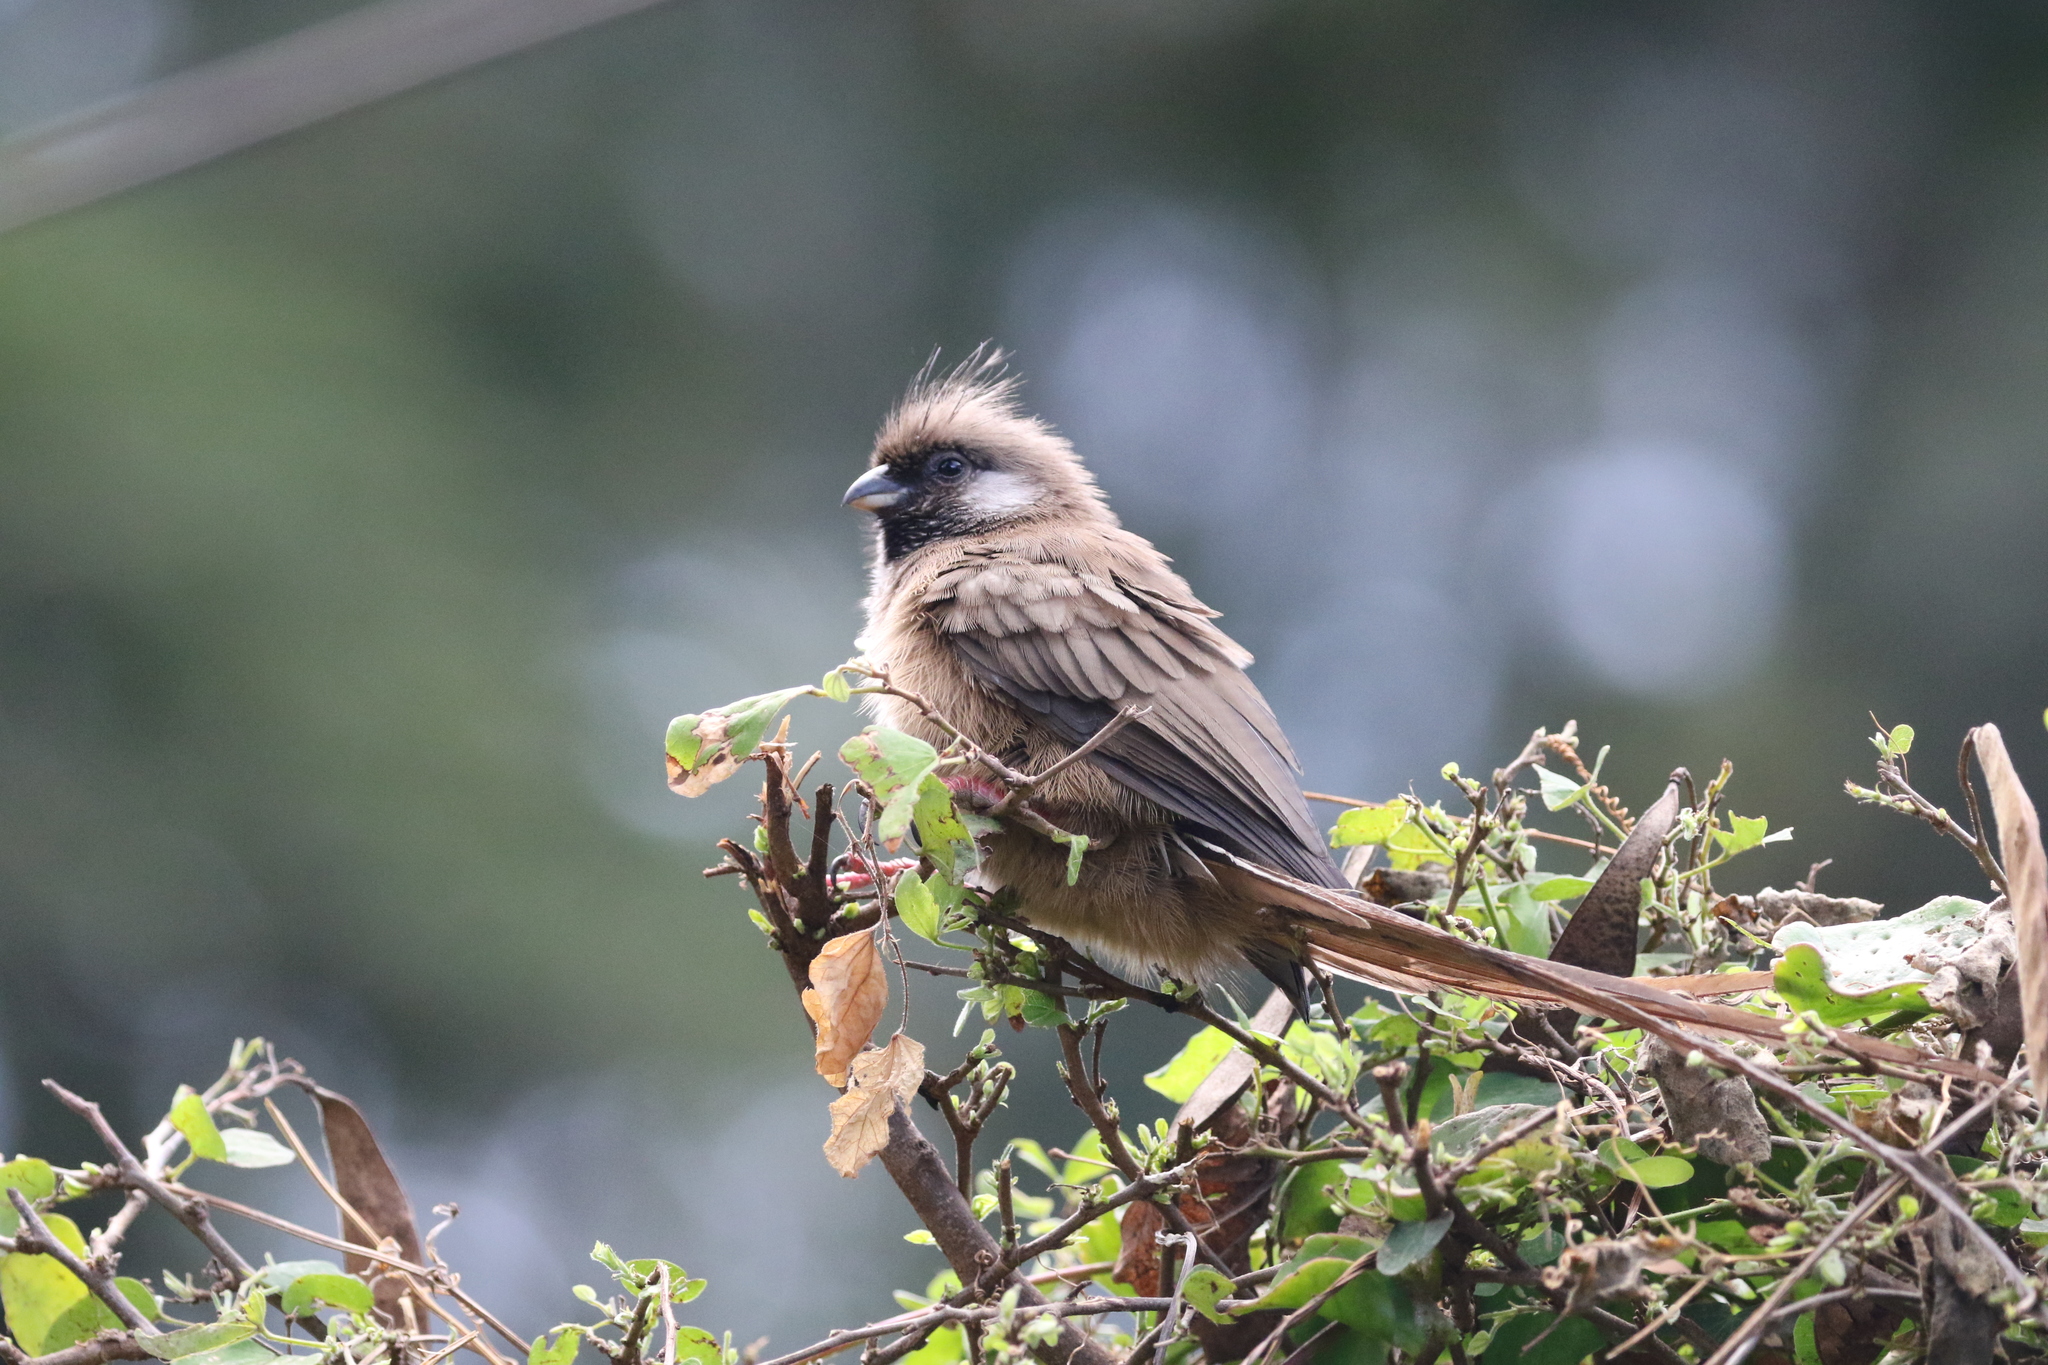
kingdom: Animalia
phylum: Chordata
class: Aves
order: Coliiformes
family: Coliidae
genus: Colius
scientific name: Colius striatus
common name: Speckled mousebird
